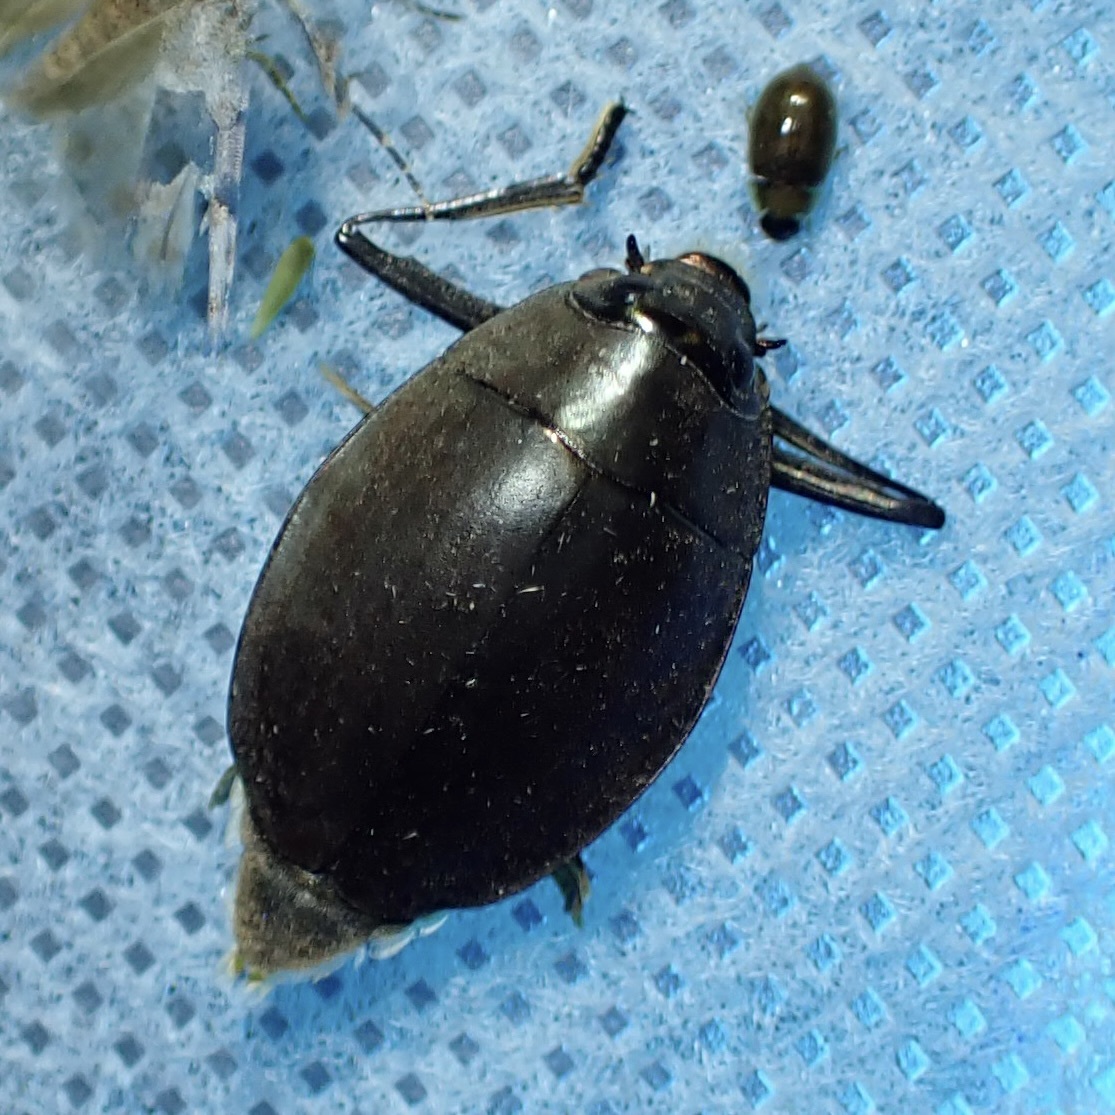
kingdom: Animalia
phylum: Arthropoda
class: Insecta
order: Coleoptera
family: Gyrinidae
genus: Dineutus
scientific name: Dineutus sublineatus
